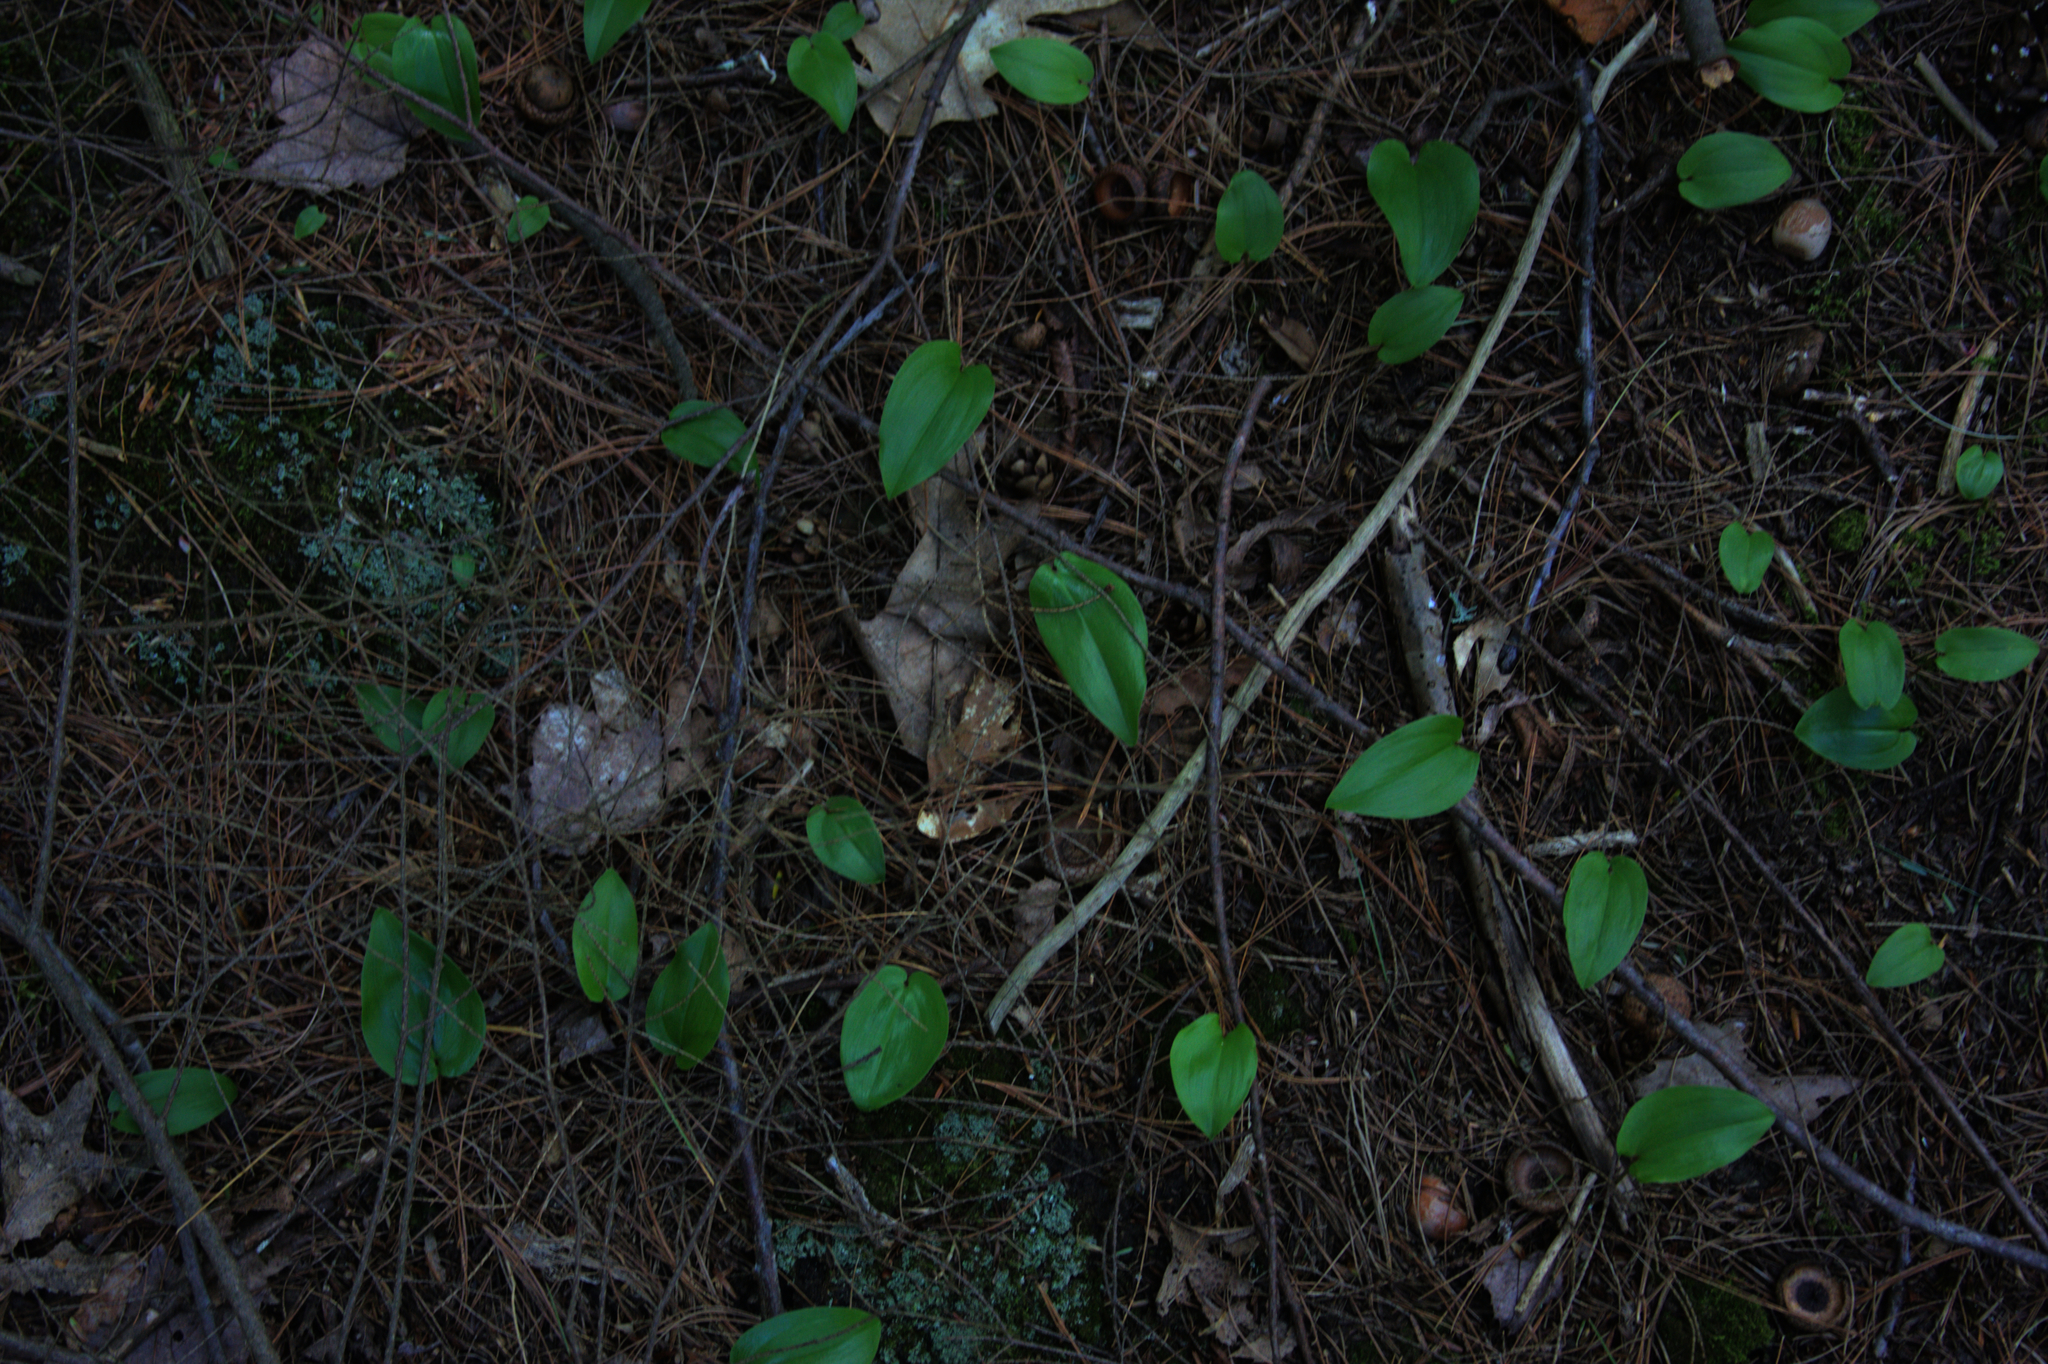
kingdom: Plantae
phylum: Tracheophyta
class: Liliopsida
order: Asparagales
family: Asparagaceae
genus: Maianthemum
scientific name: Maianthemum canadense
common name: False lily-of-the-valley
